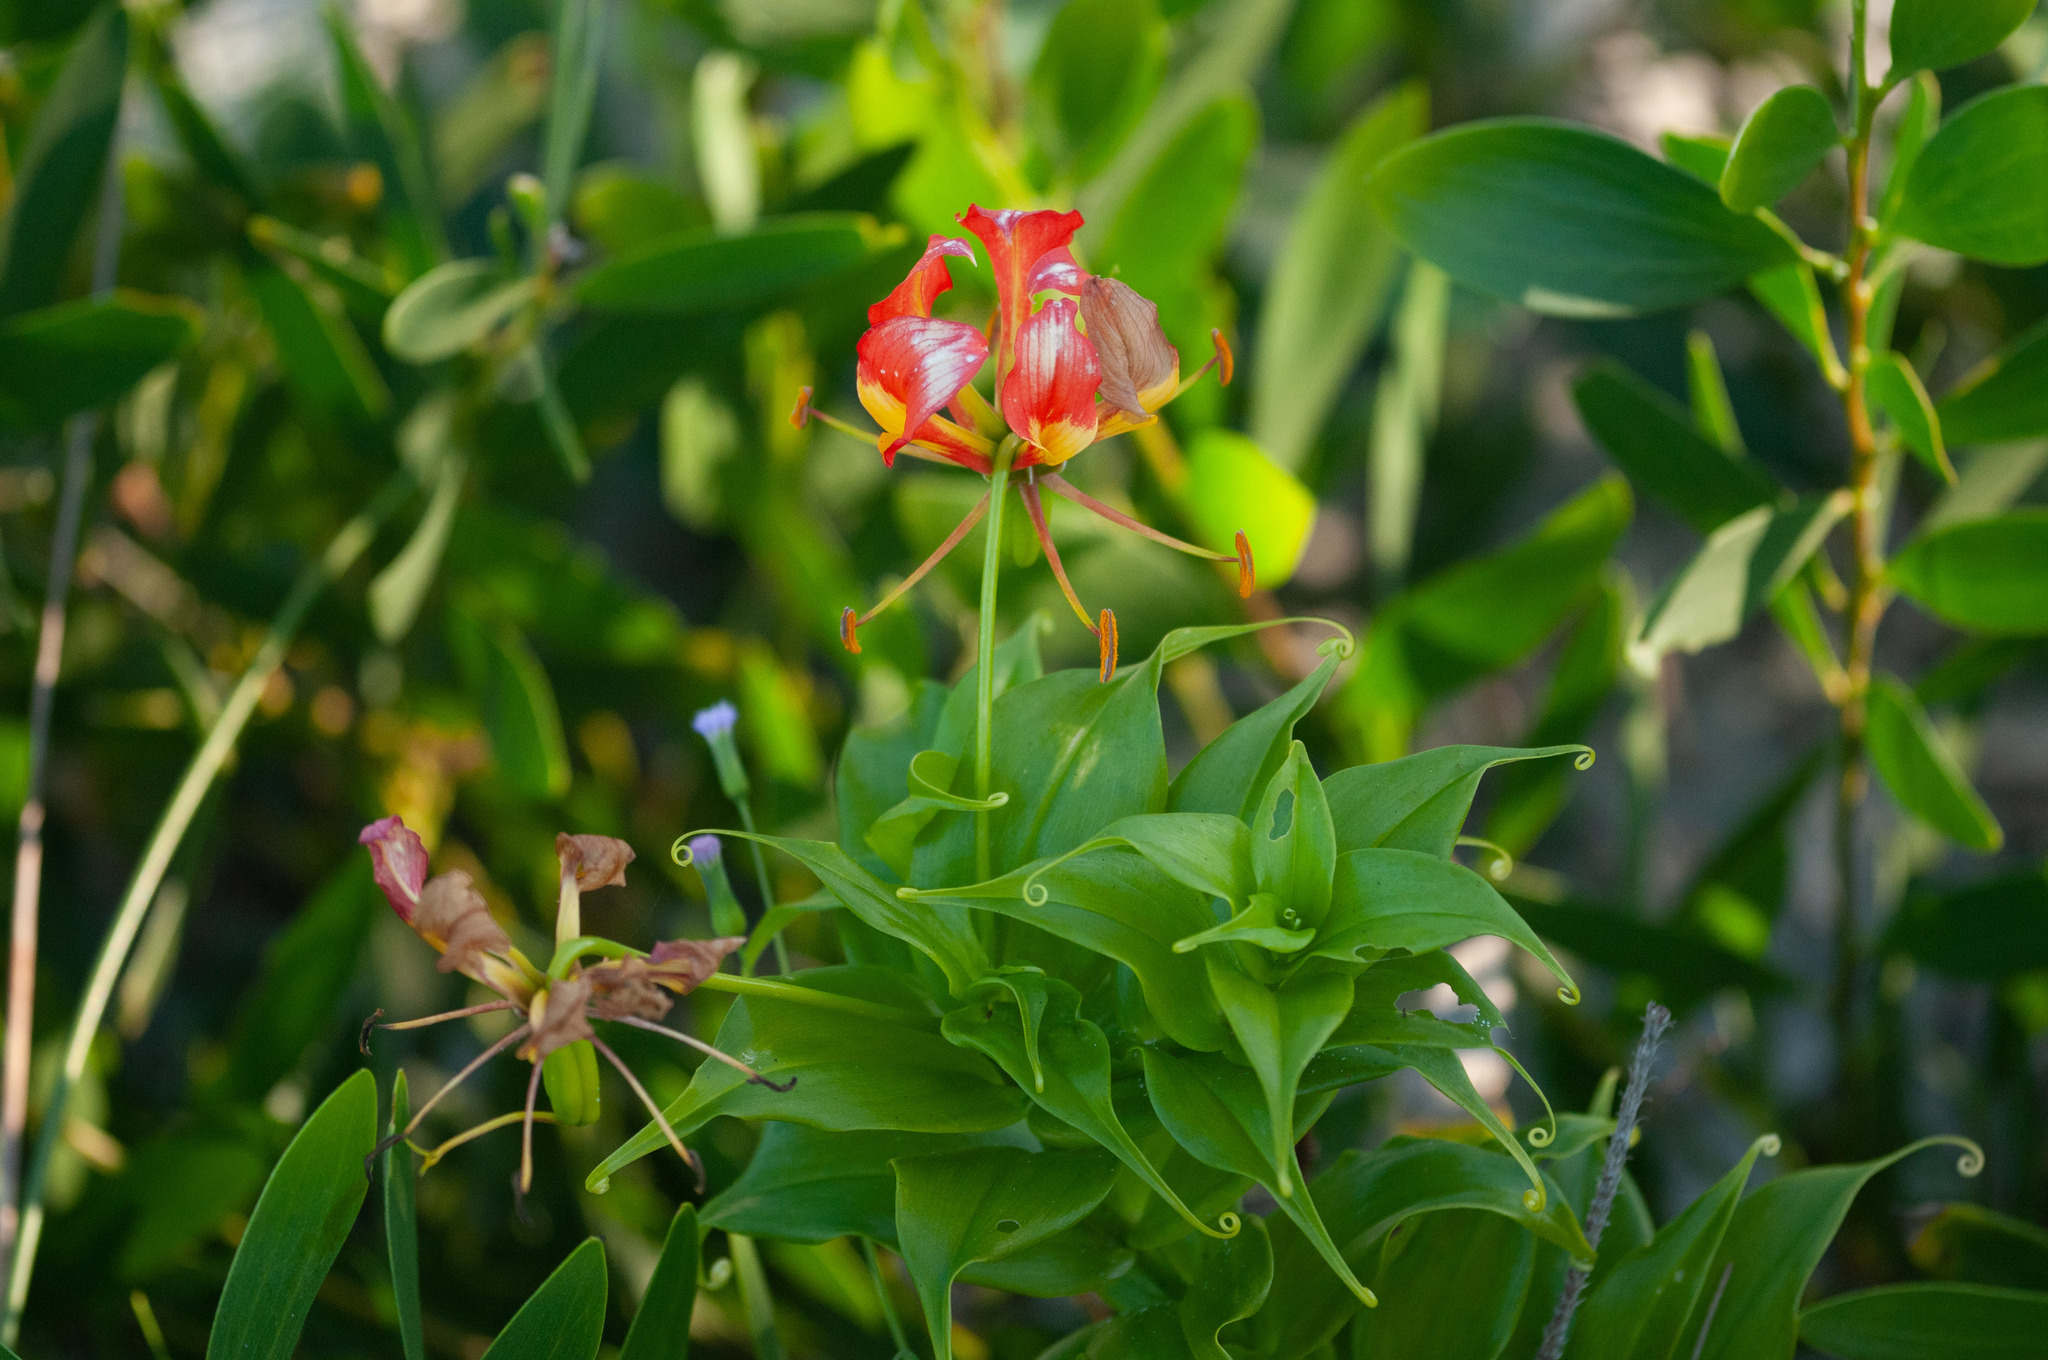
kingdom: Plantae
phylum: Tracheophyta
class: Liliopsida
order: Liliales
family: Colchicaceae
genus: Gloriosa
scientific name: Gloriosa superba
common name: Flame lily
